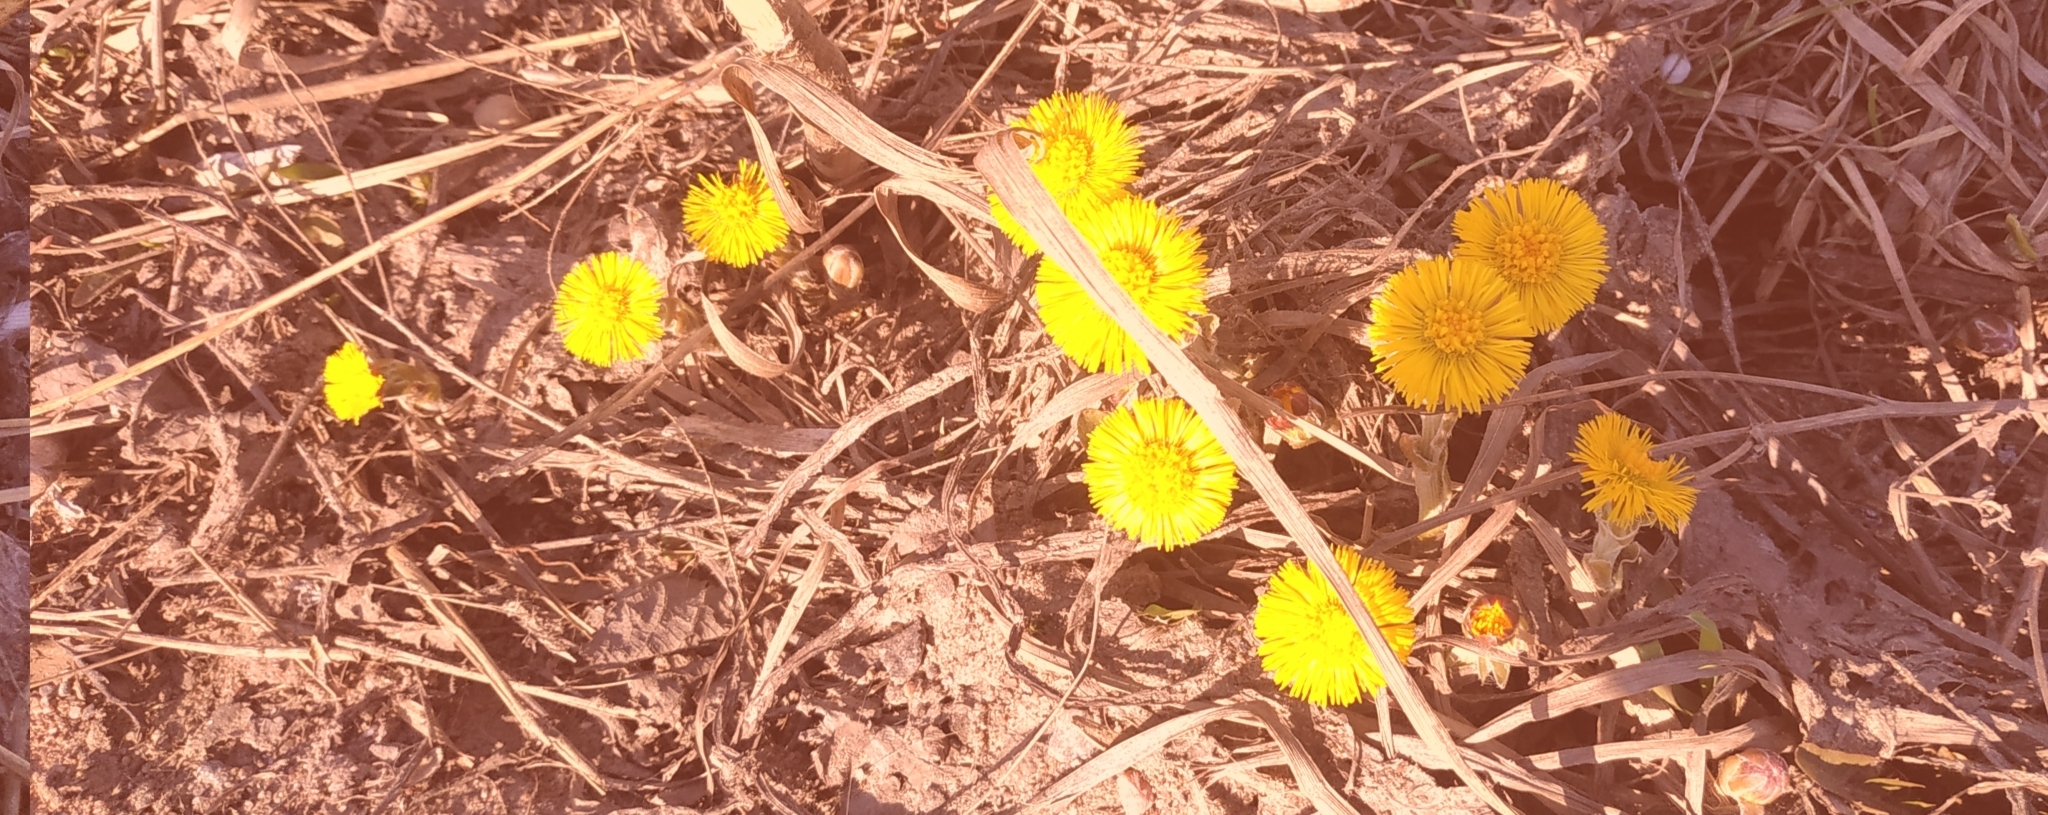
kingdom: Plantae
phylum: Tracheophyta
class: Magnoliopsida
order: Asterales
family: Asteraceae
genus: Tussilago
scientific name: Tussilago farfara
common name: Coltsfoot
